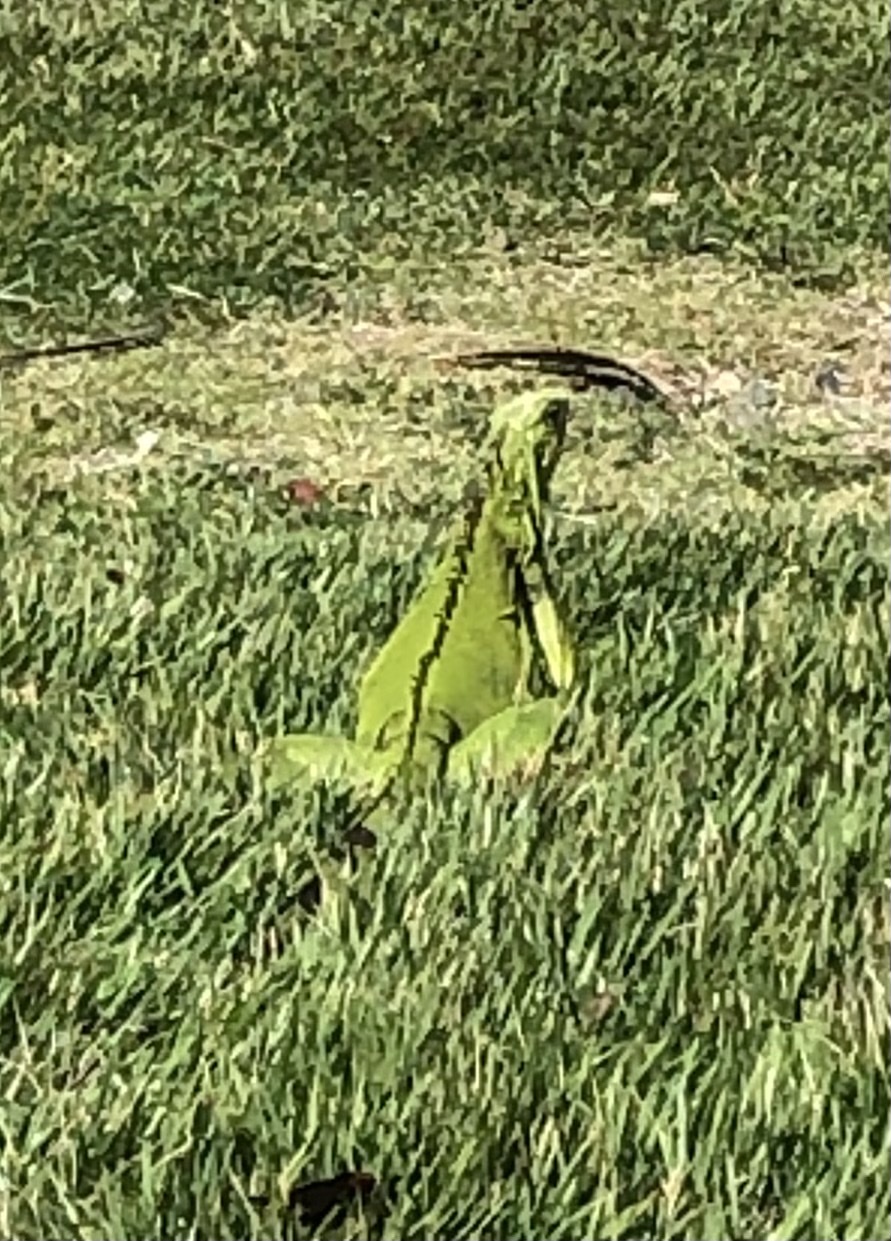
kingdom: Animalia
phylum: Chordata
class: Squamata
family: Iguanidae
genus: Iguana
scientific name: Iguana iguana
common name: Green iguana
